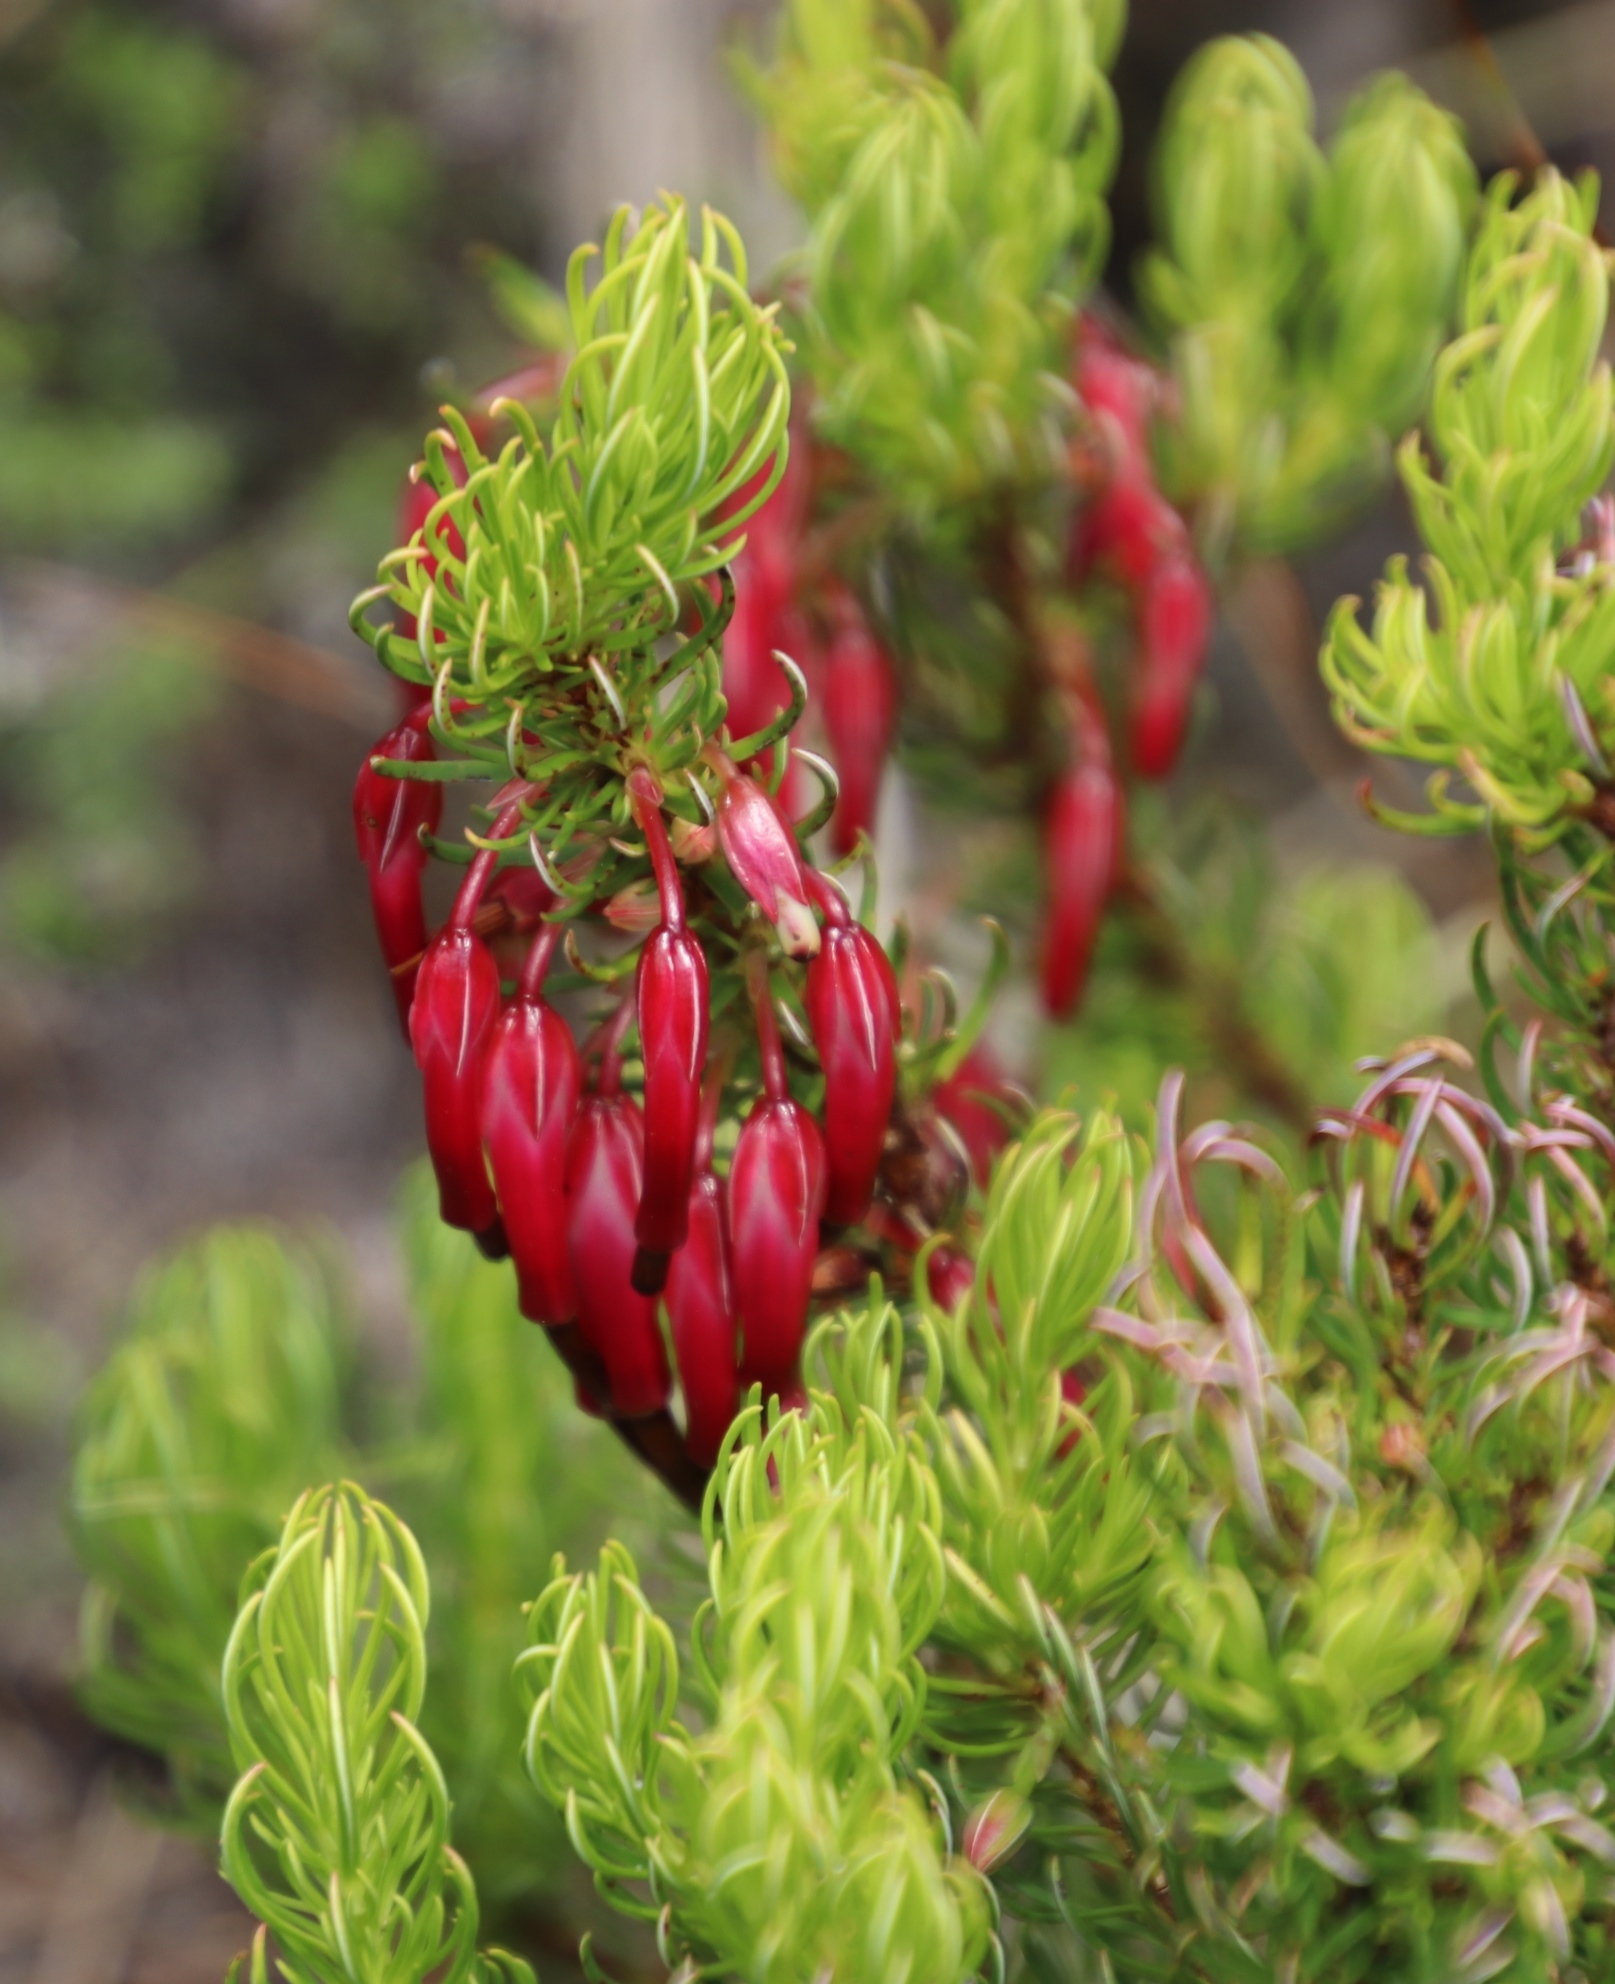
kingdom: Plantae
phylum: Tracheophyta
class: Magnoliopsida
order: Ericales
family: Ericaceae
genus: Erica
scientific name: Erica plukenetii
